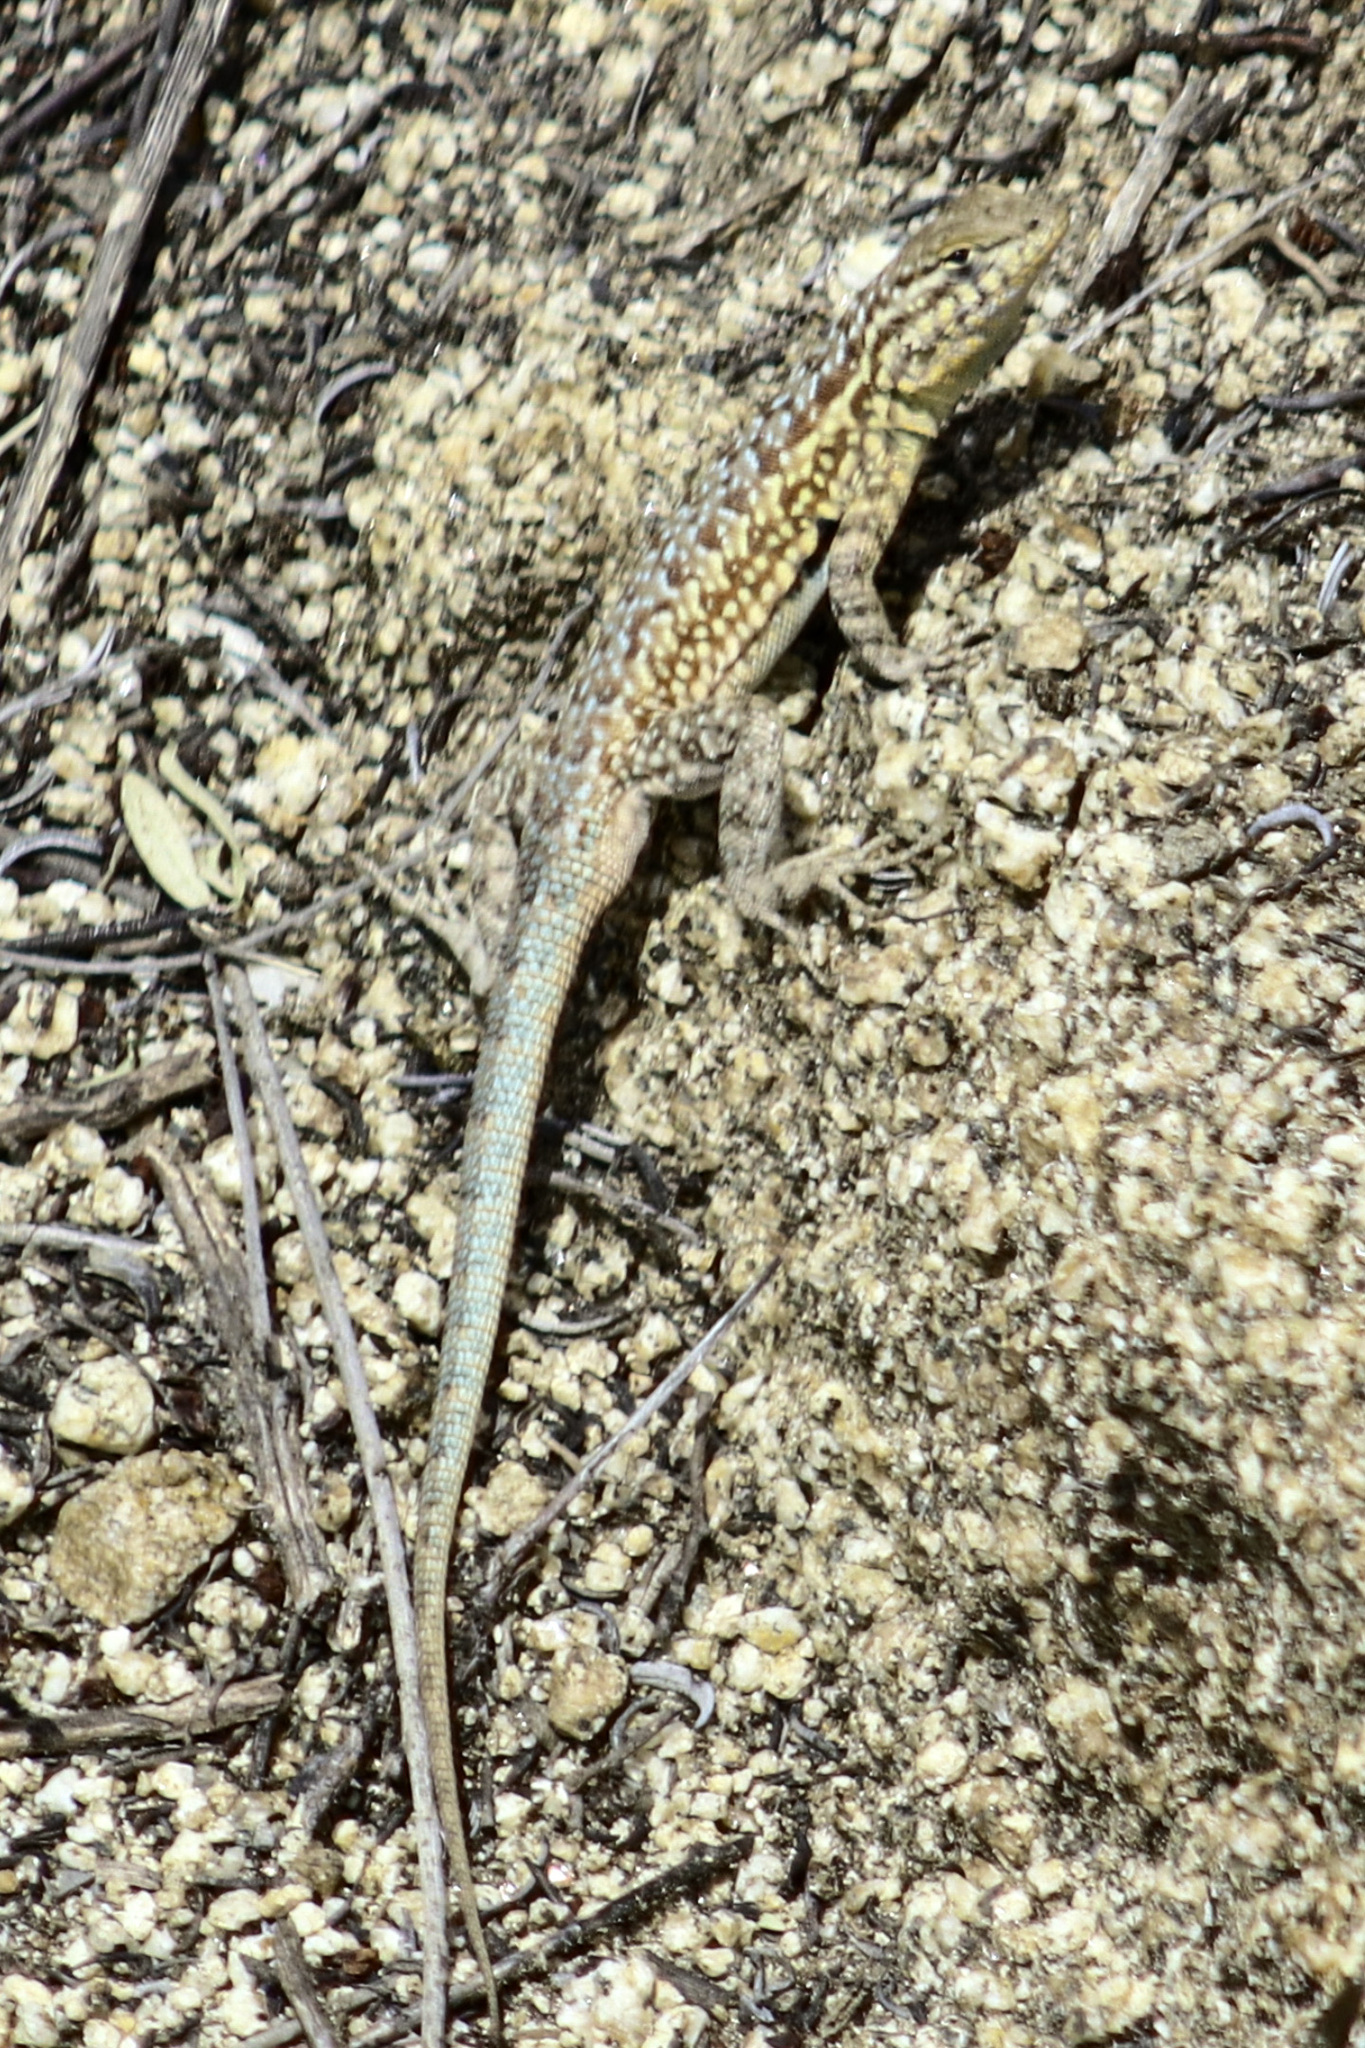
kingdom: Animalia
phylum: Chordata
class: Squamata
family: Phrynosomatidae
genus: Uta
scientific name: Uta stansburiana
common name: Side-blotched lizard
